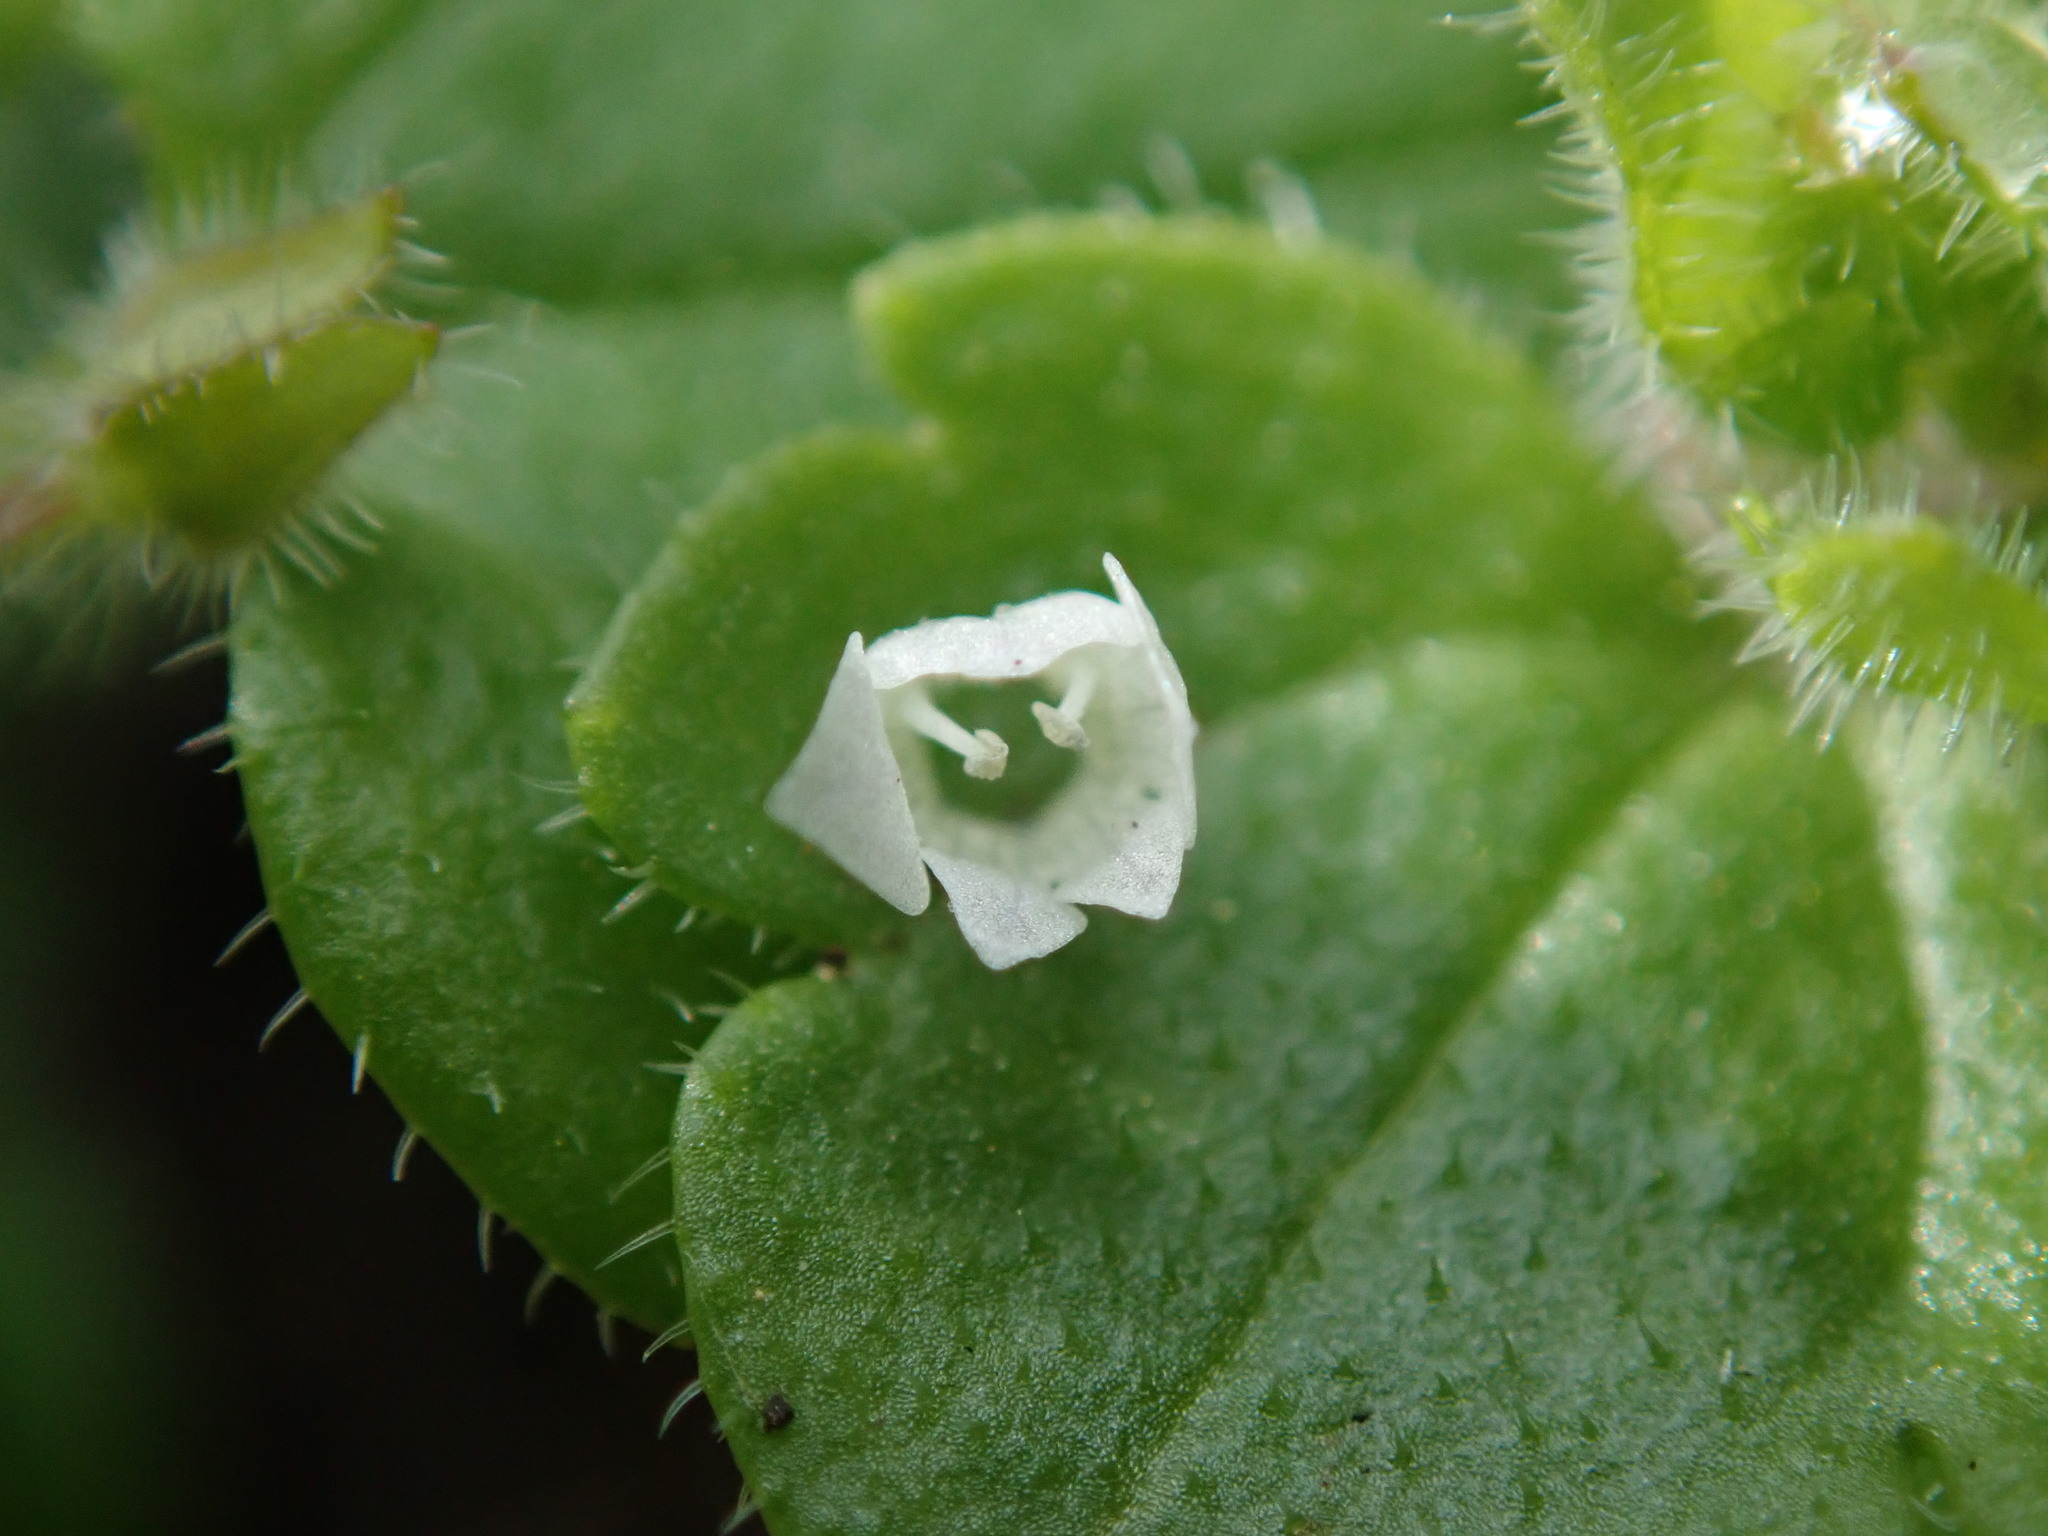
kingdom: Plantae
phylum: Tracheophyta
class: Magnoliopsida
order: Lamiales
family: Plantaginaceae
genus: Veronica
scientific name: Veronica sublobata
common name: False ivy-leaved speedwell
